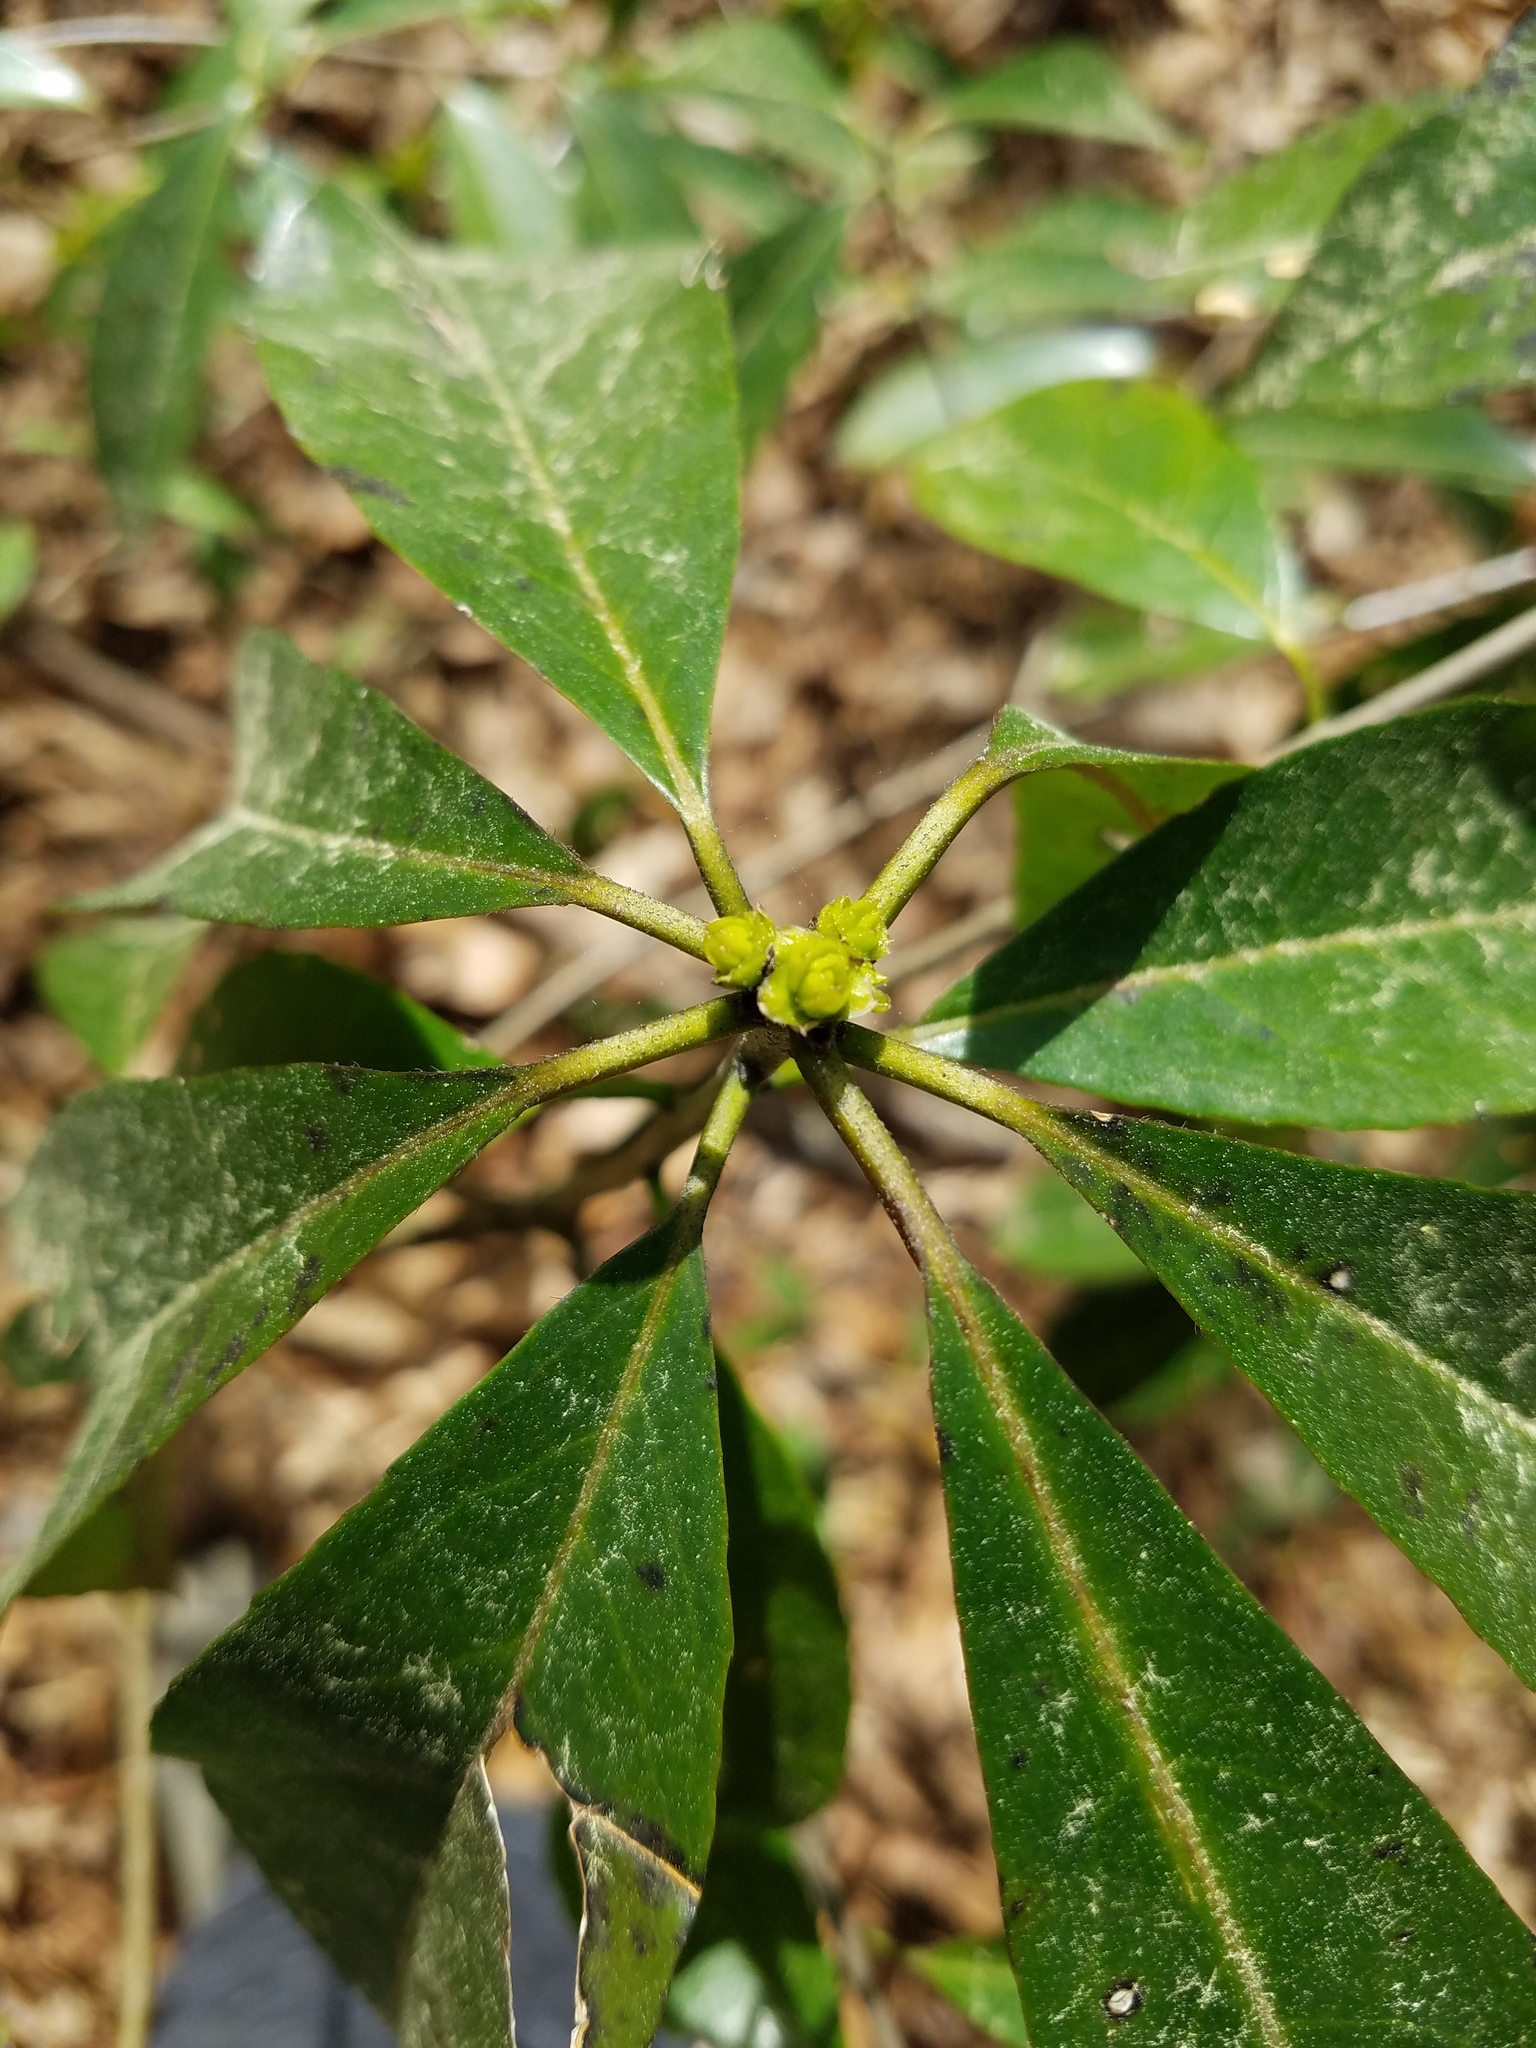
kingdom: Plantae
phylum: Tracheophyta
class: Magnoliopsida
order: Ericales
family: Symplocaceae
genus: Symplocos
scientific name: Symplocos tinctoria
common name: Horse-sugar
